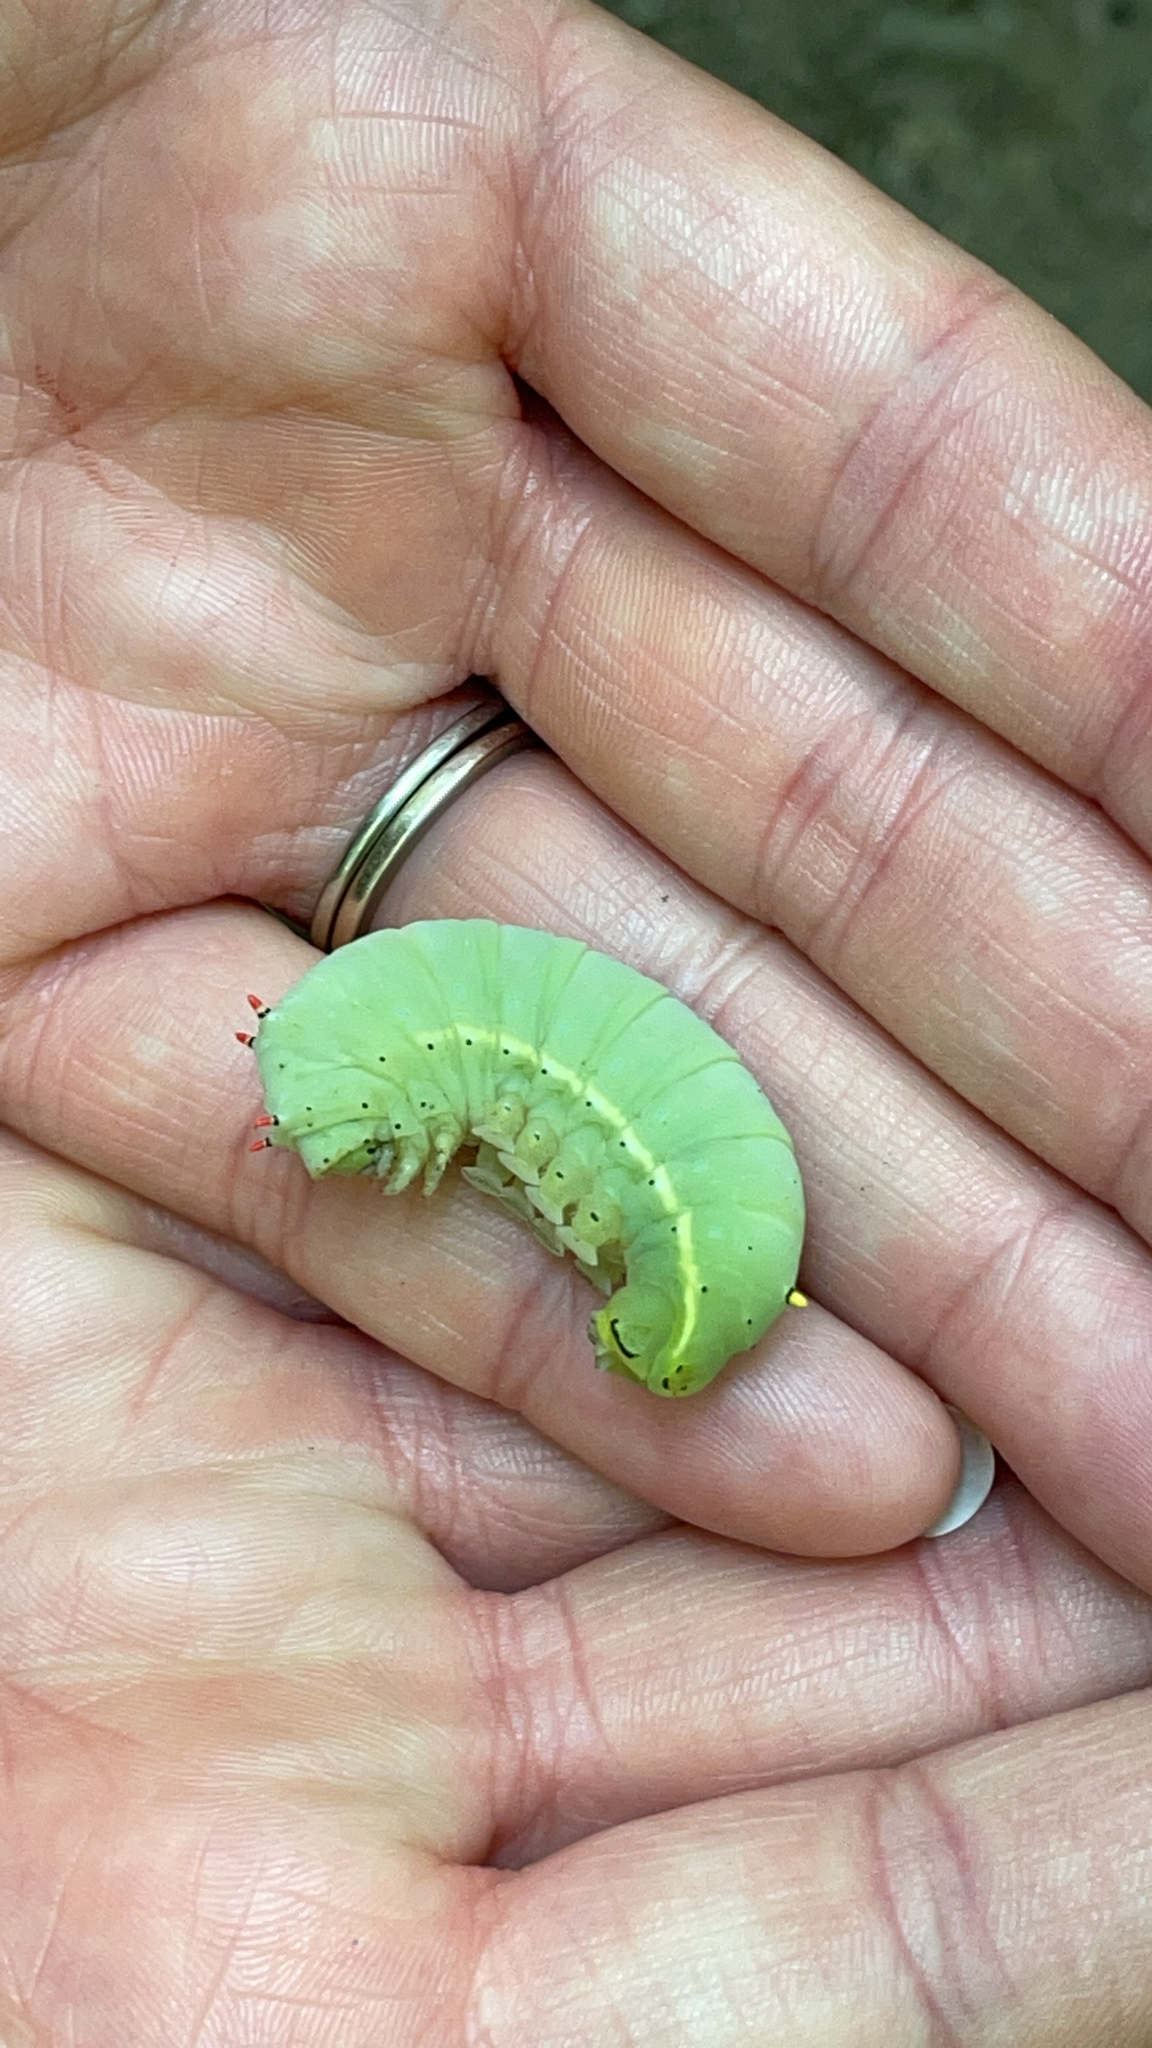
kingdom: Animalia
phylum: Arthropoda
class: Insecta
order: Lepidoptera
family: Saturniidae
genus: Callosamia
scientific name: Callosamia angulifera
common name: Tulip tree silkmoth
